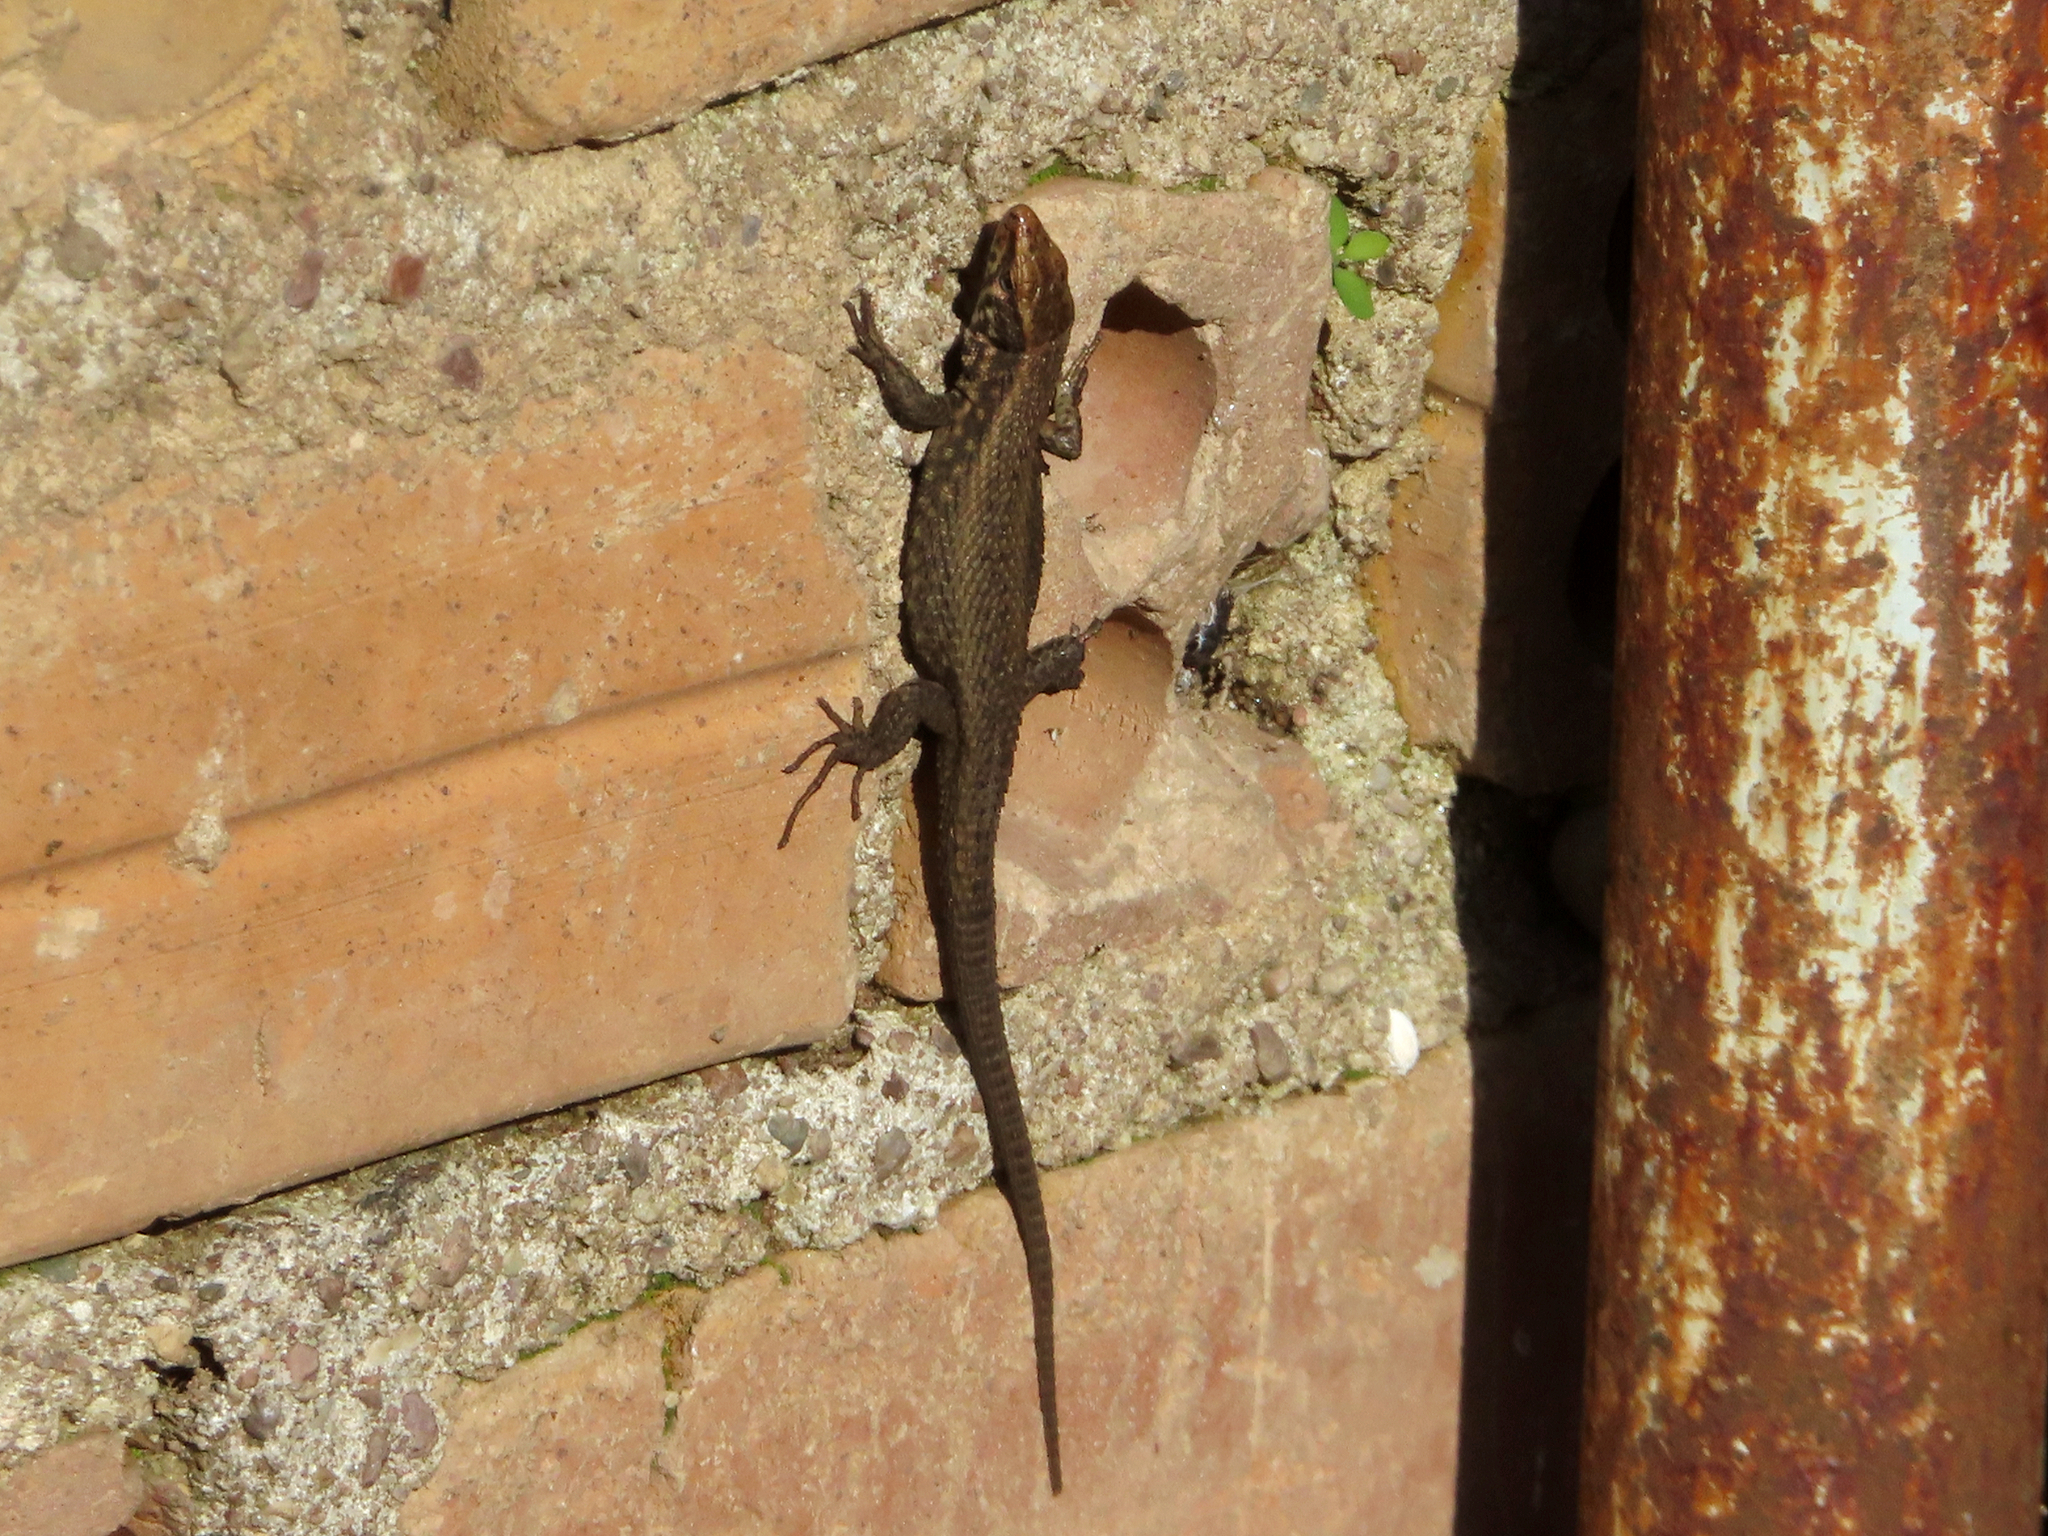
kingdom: Animalia
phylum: Chordata
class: Squamata
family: Lacertidae
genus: Algyroides
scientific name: Algyroides moreoticus
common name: Greek algyroides
